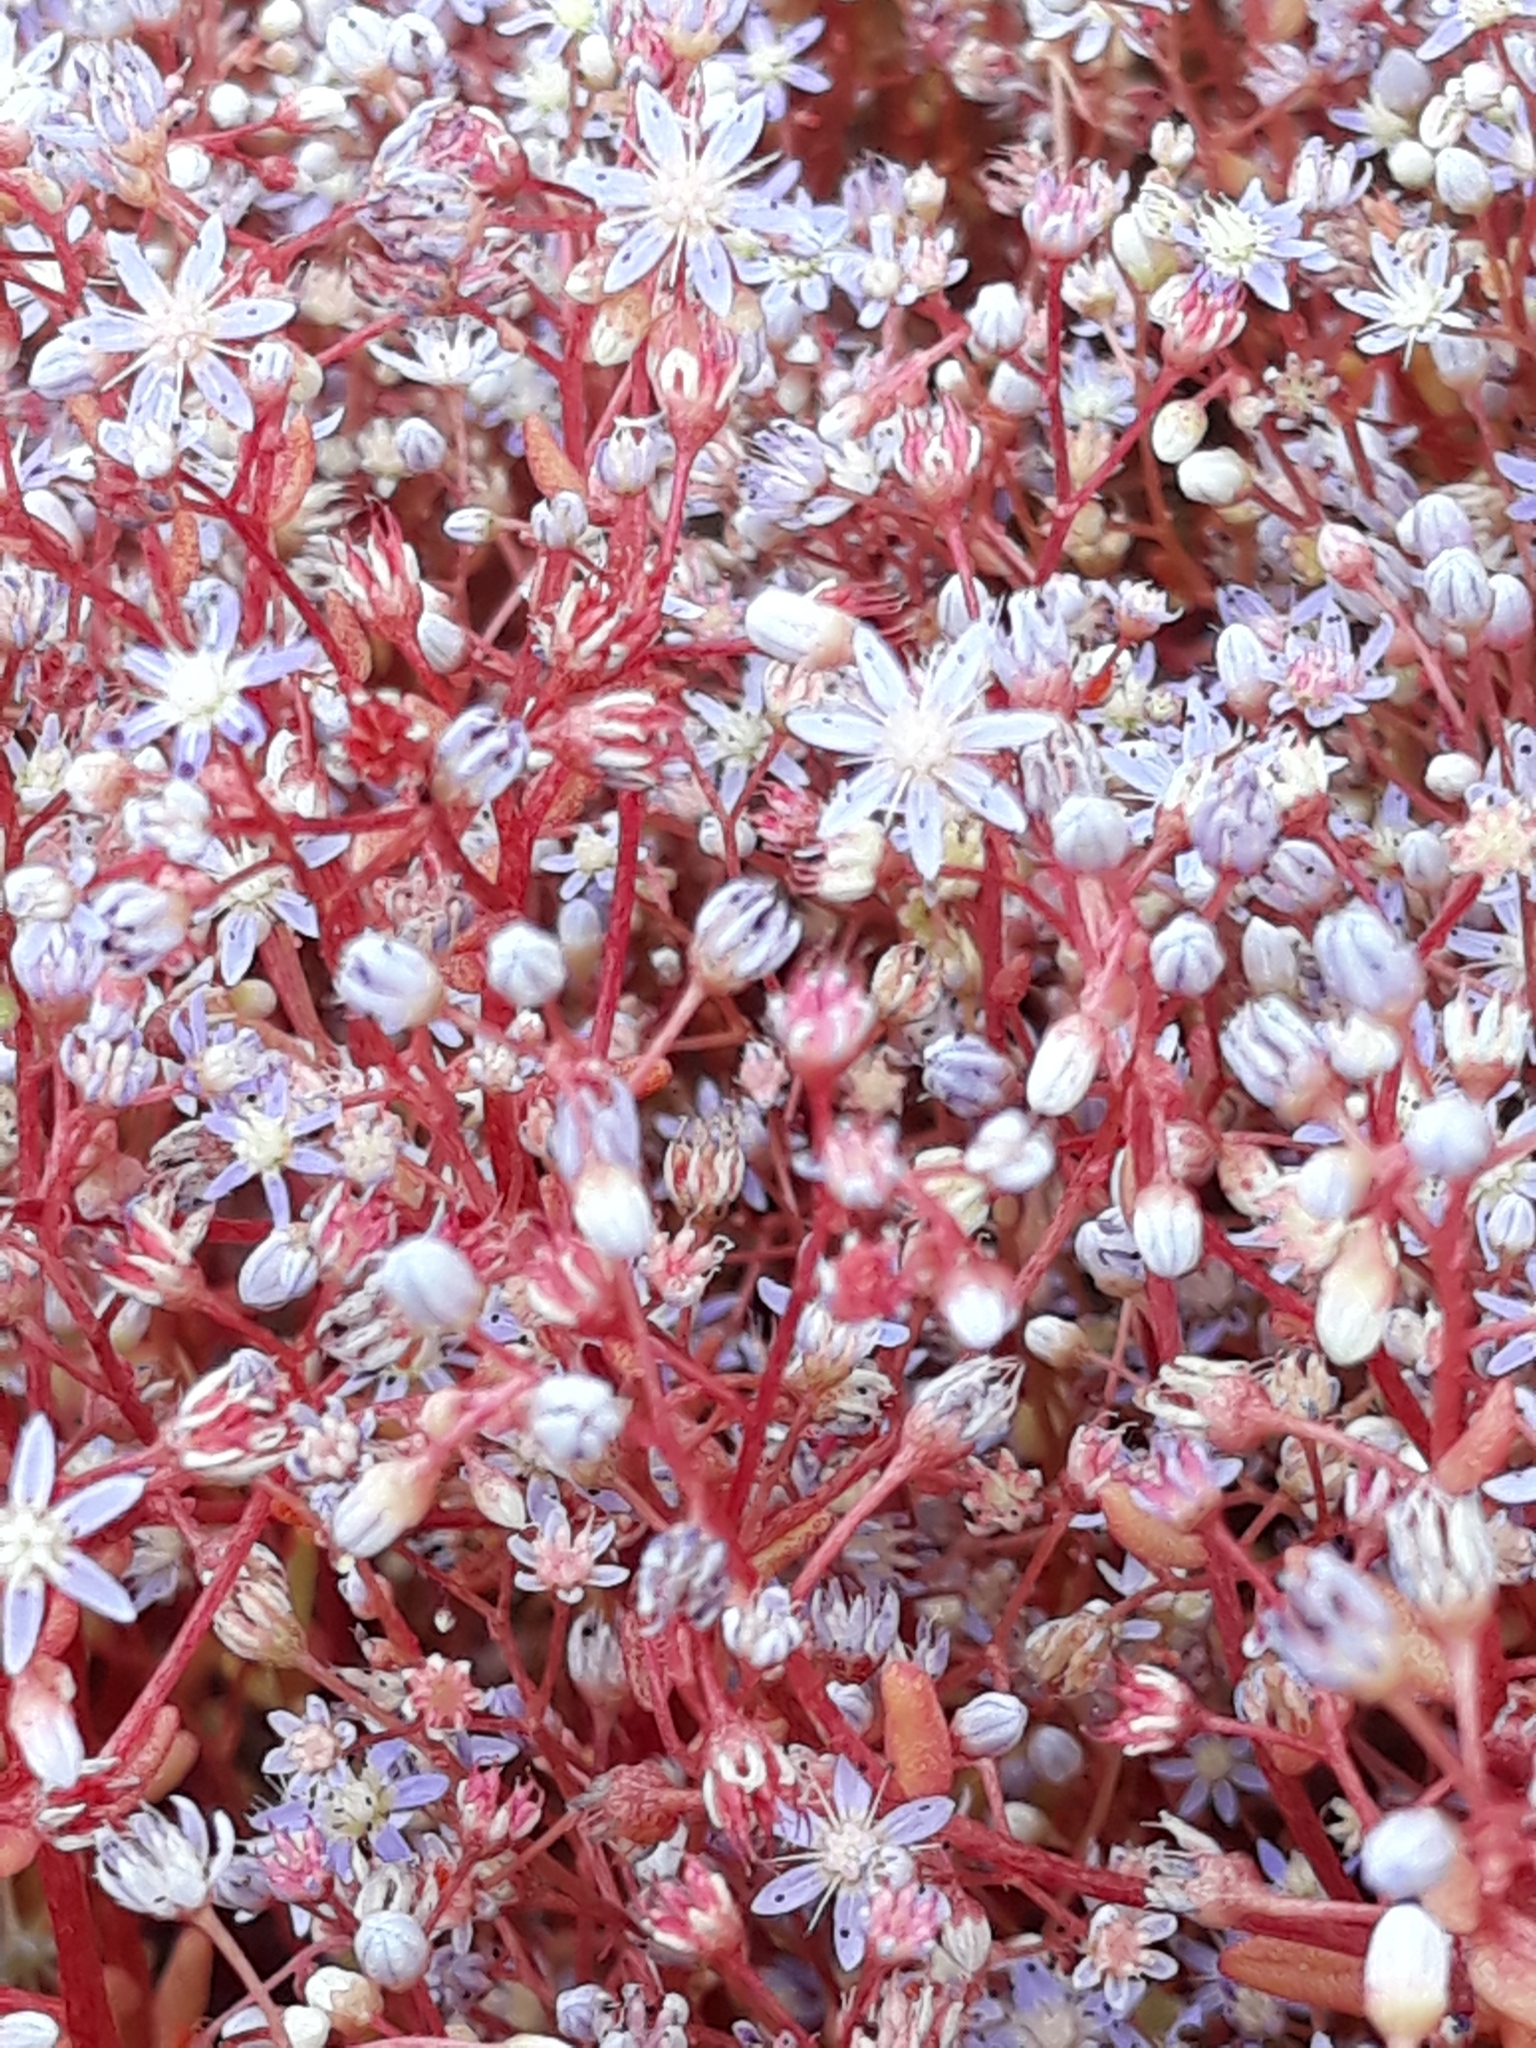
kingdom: Plantae
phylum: Tracheophyta
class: Magnoliopsida
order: Saxifragales
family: Crassulaceae
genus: Sedum
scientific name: Sedum caeruleum
